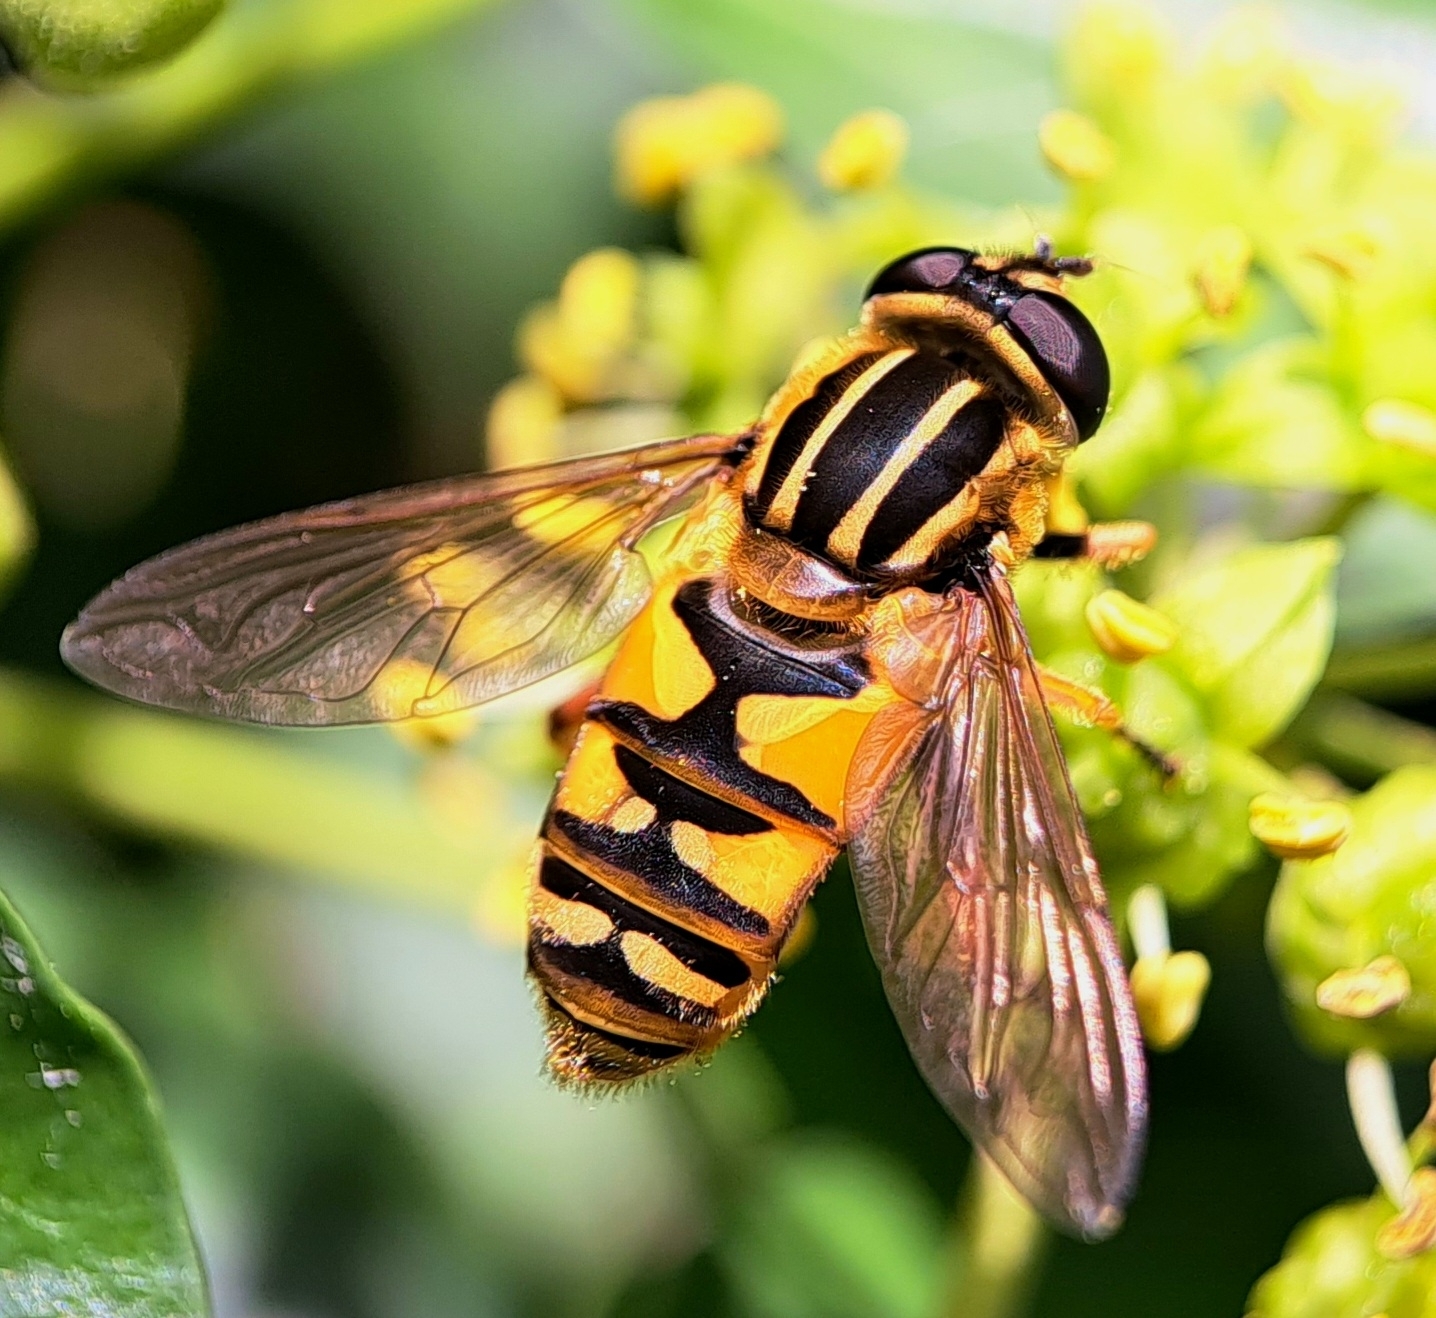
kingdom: Animalia
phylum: Arthropoda
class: Insecta
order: Diptera
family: Syrphidae
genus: Helophilus
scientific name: Helophilus pendulus
